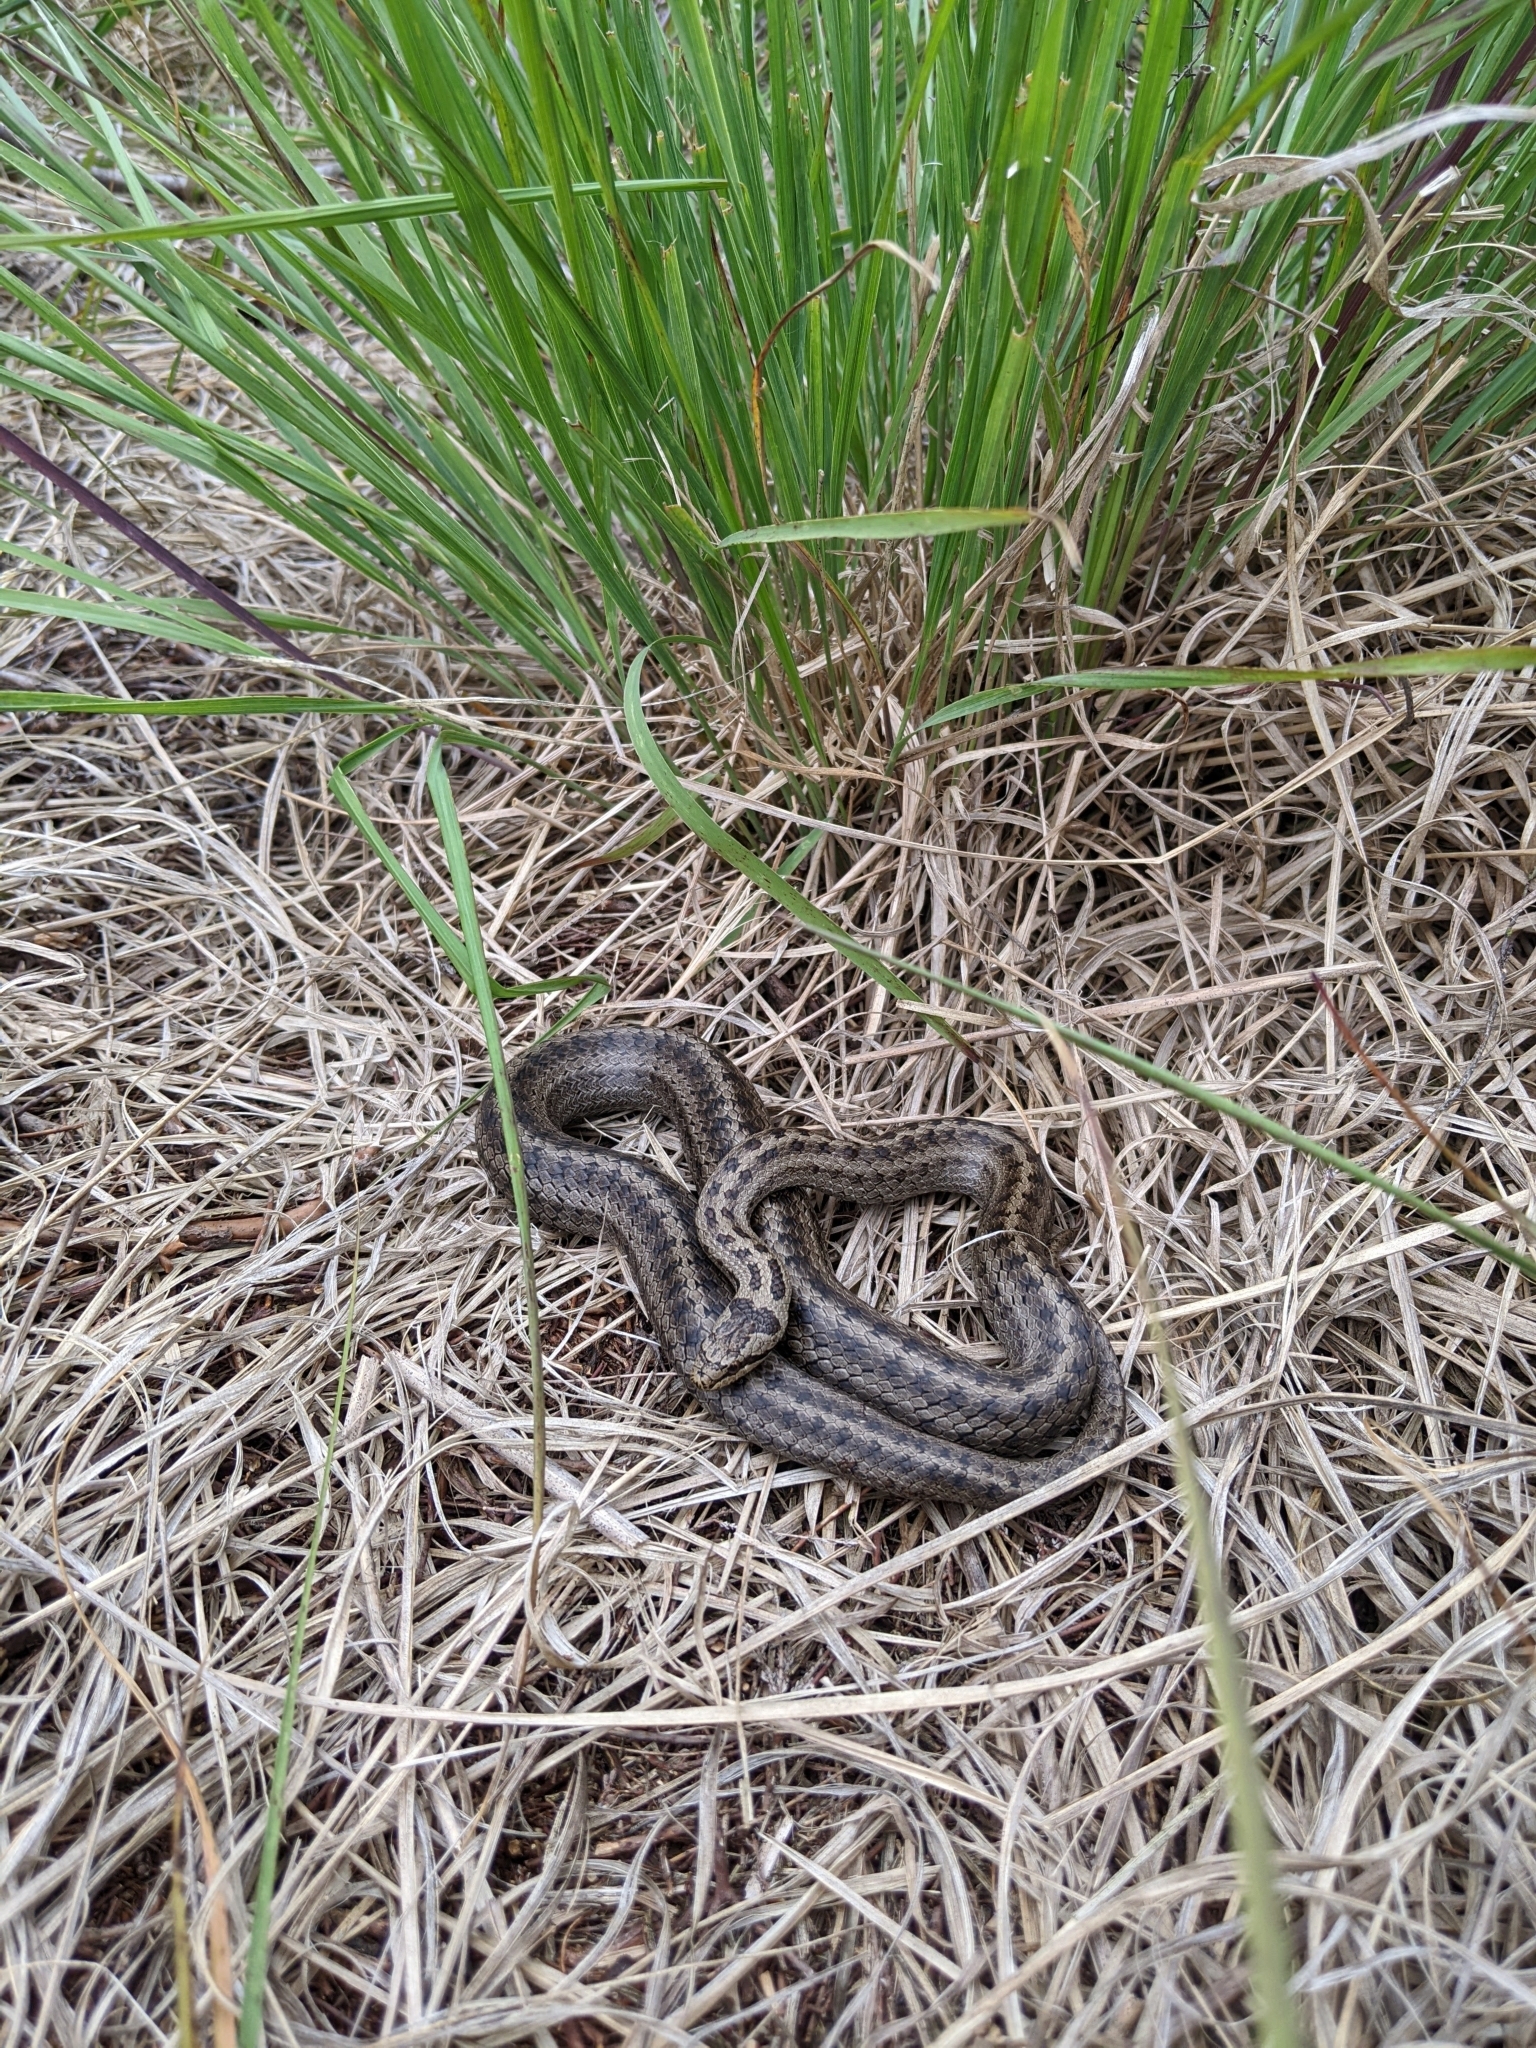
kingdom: Animalia
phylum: Chordata
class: Squamata
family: Colubridae
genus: Coronella
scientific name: Coronella austriaca
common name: Smooth snake
